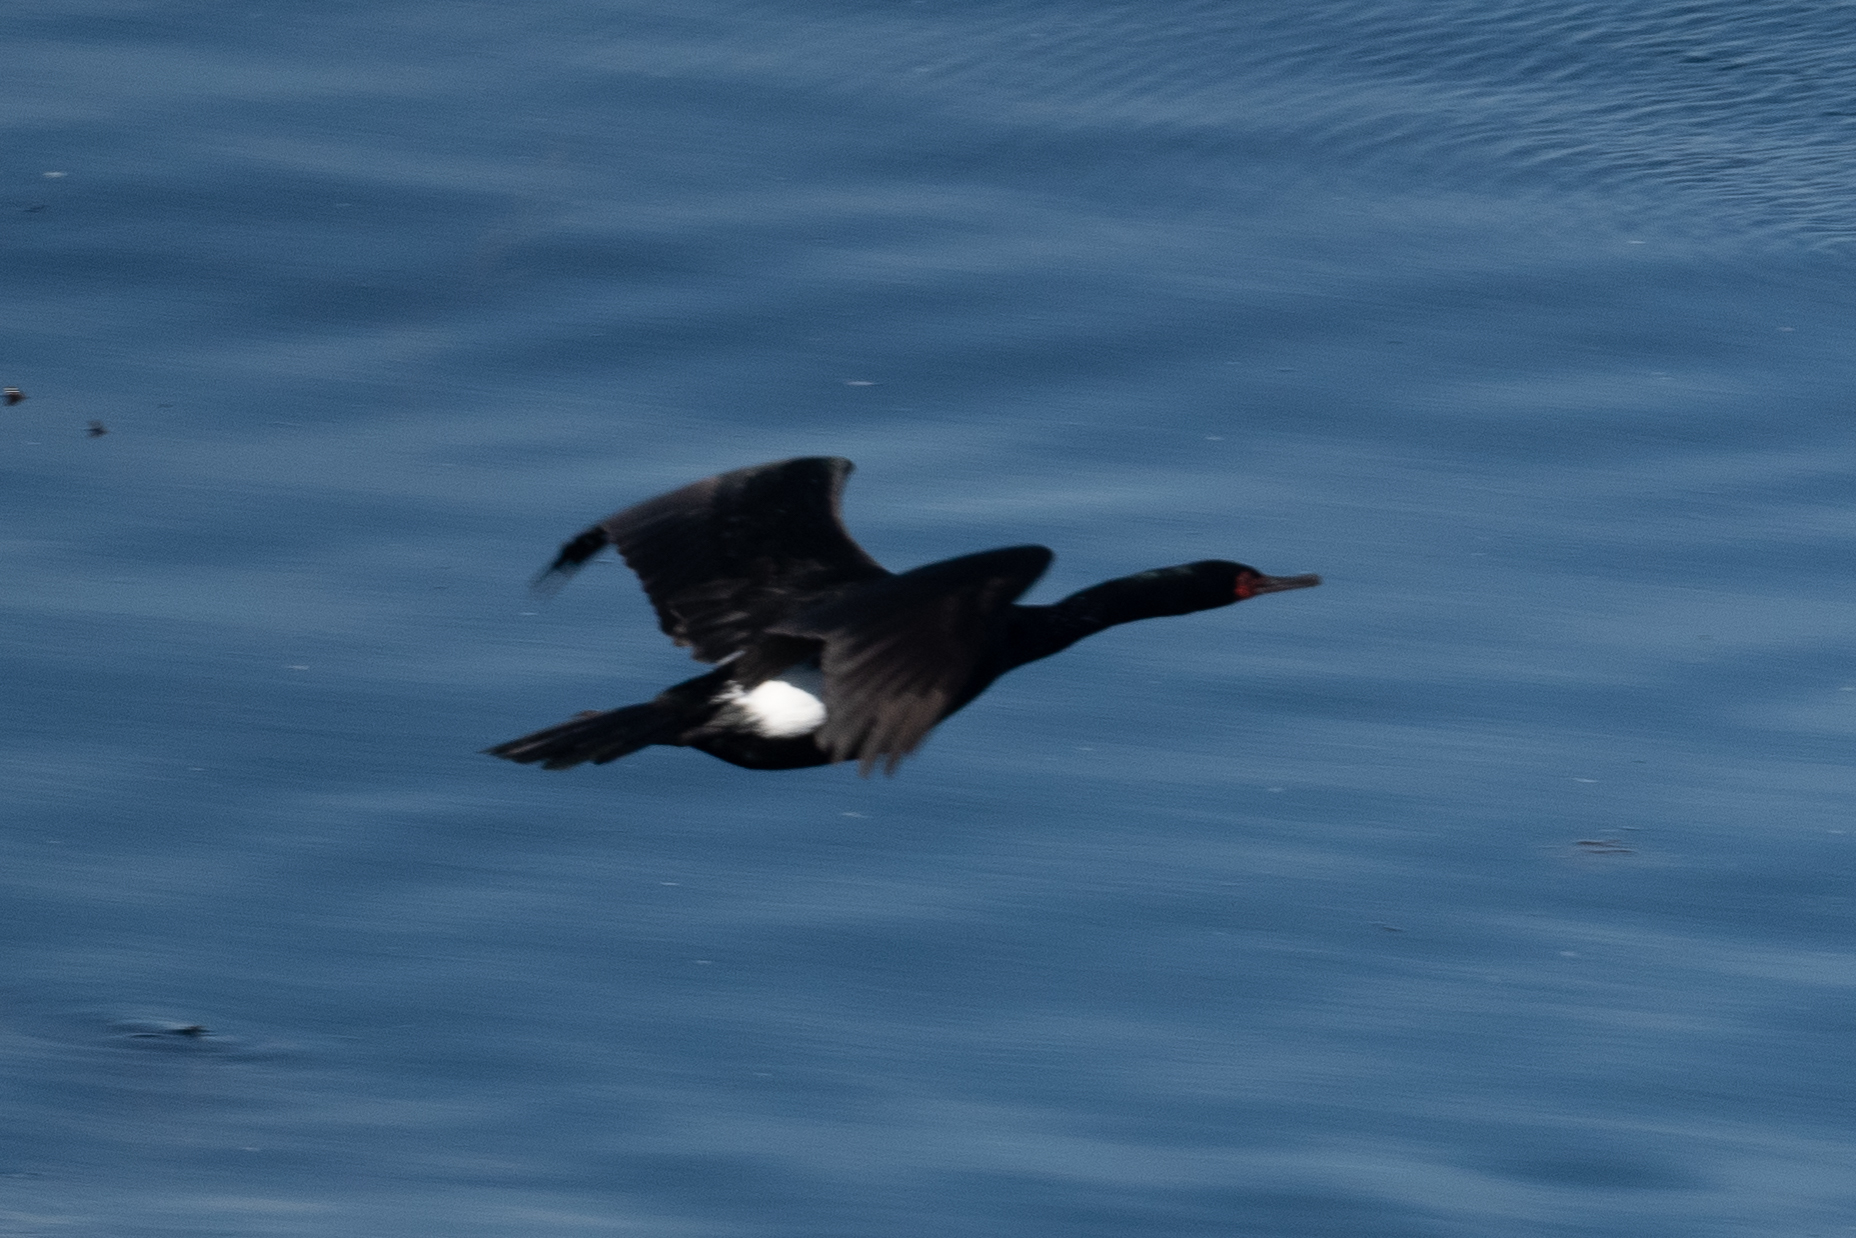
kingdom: Animalia
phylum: Chordata
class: Aves
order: Suliformes
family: Phalacrocoracidae
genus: Phalacrocorax
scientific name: Phalacrocorax pelagicus
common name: Pelagic cormorant
